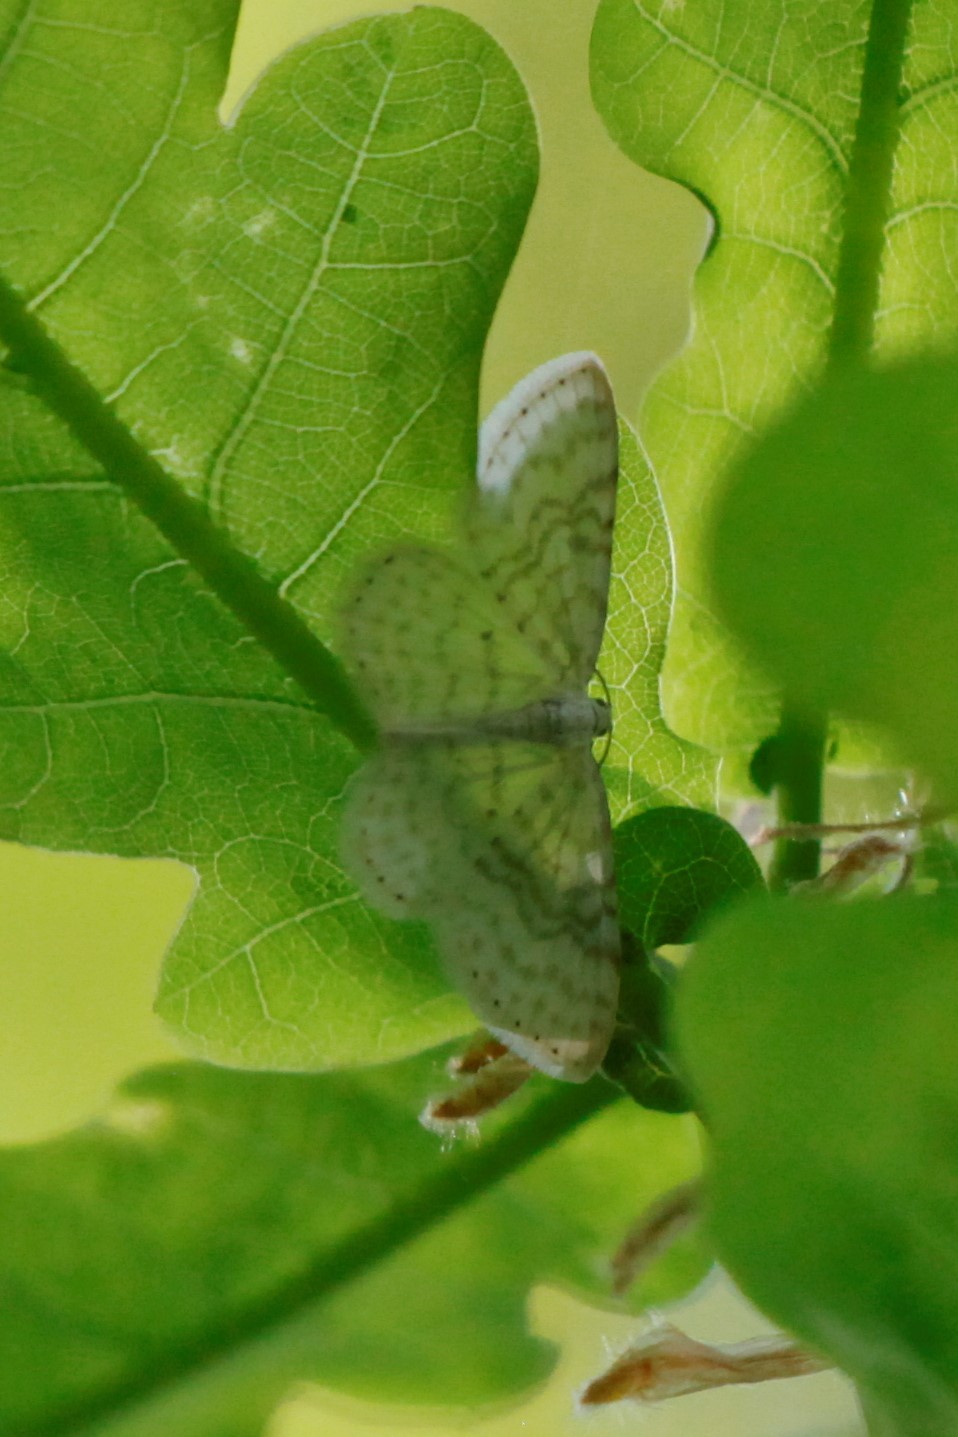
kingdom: Animalia
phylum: Arthropoda
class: Insecta
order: Lepidoptera
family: Geometridae
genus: Asthena
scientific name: Asthena albulata
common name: Small white wave
